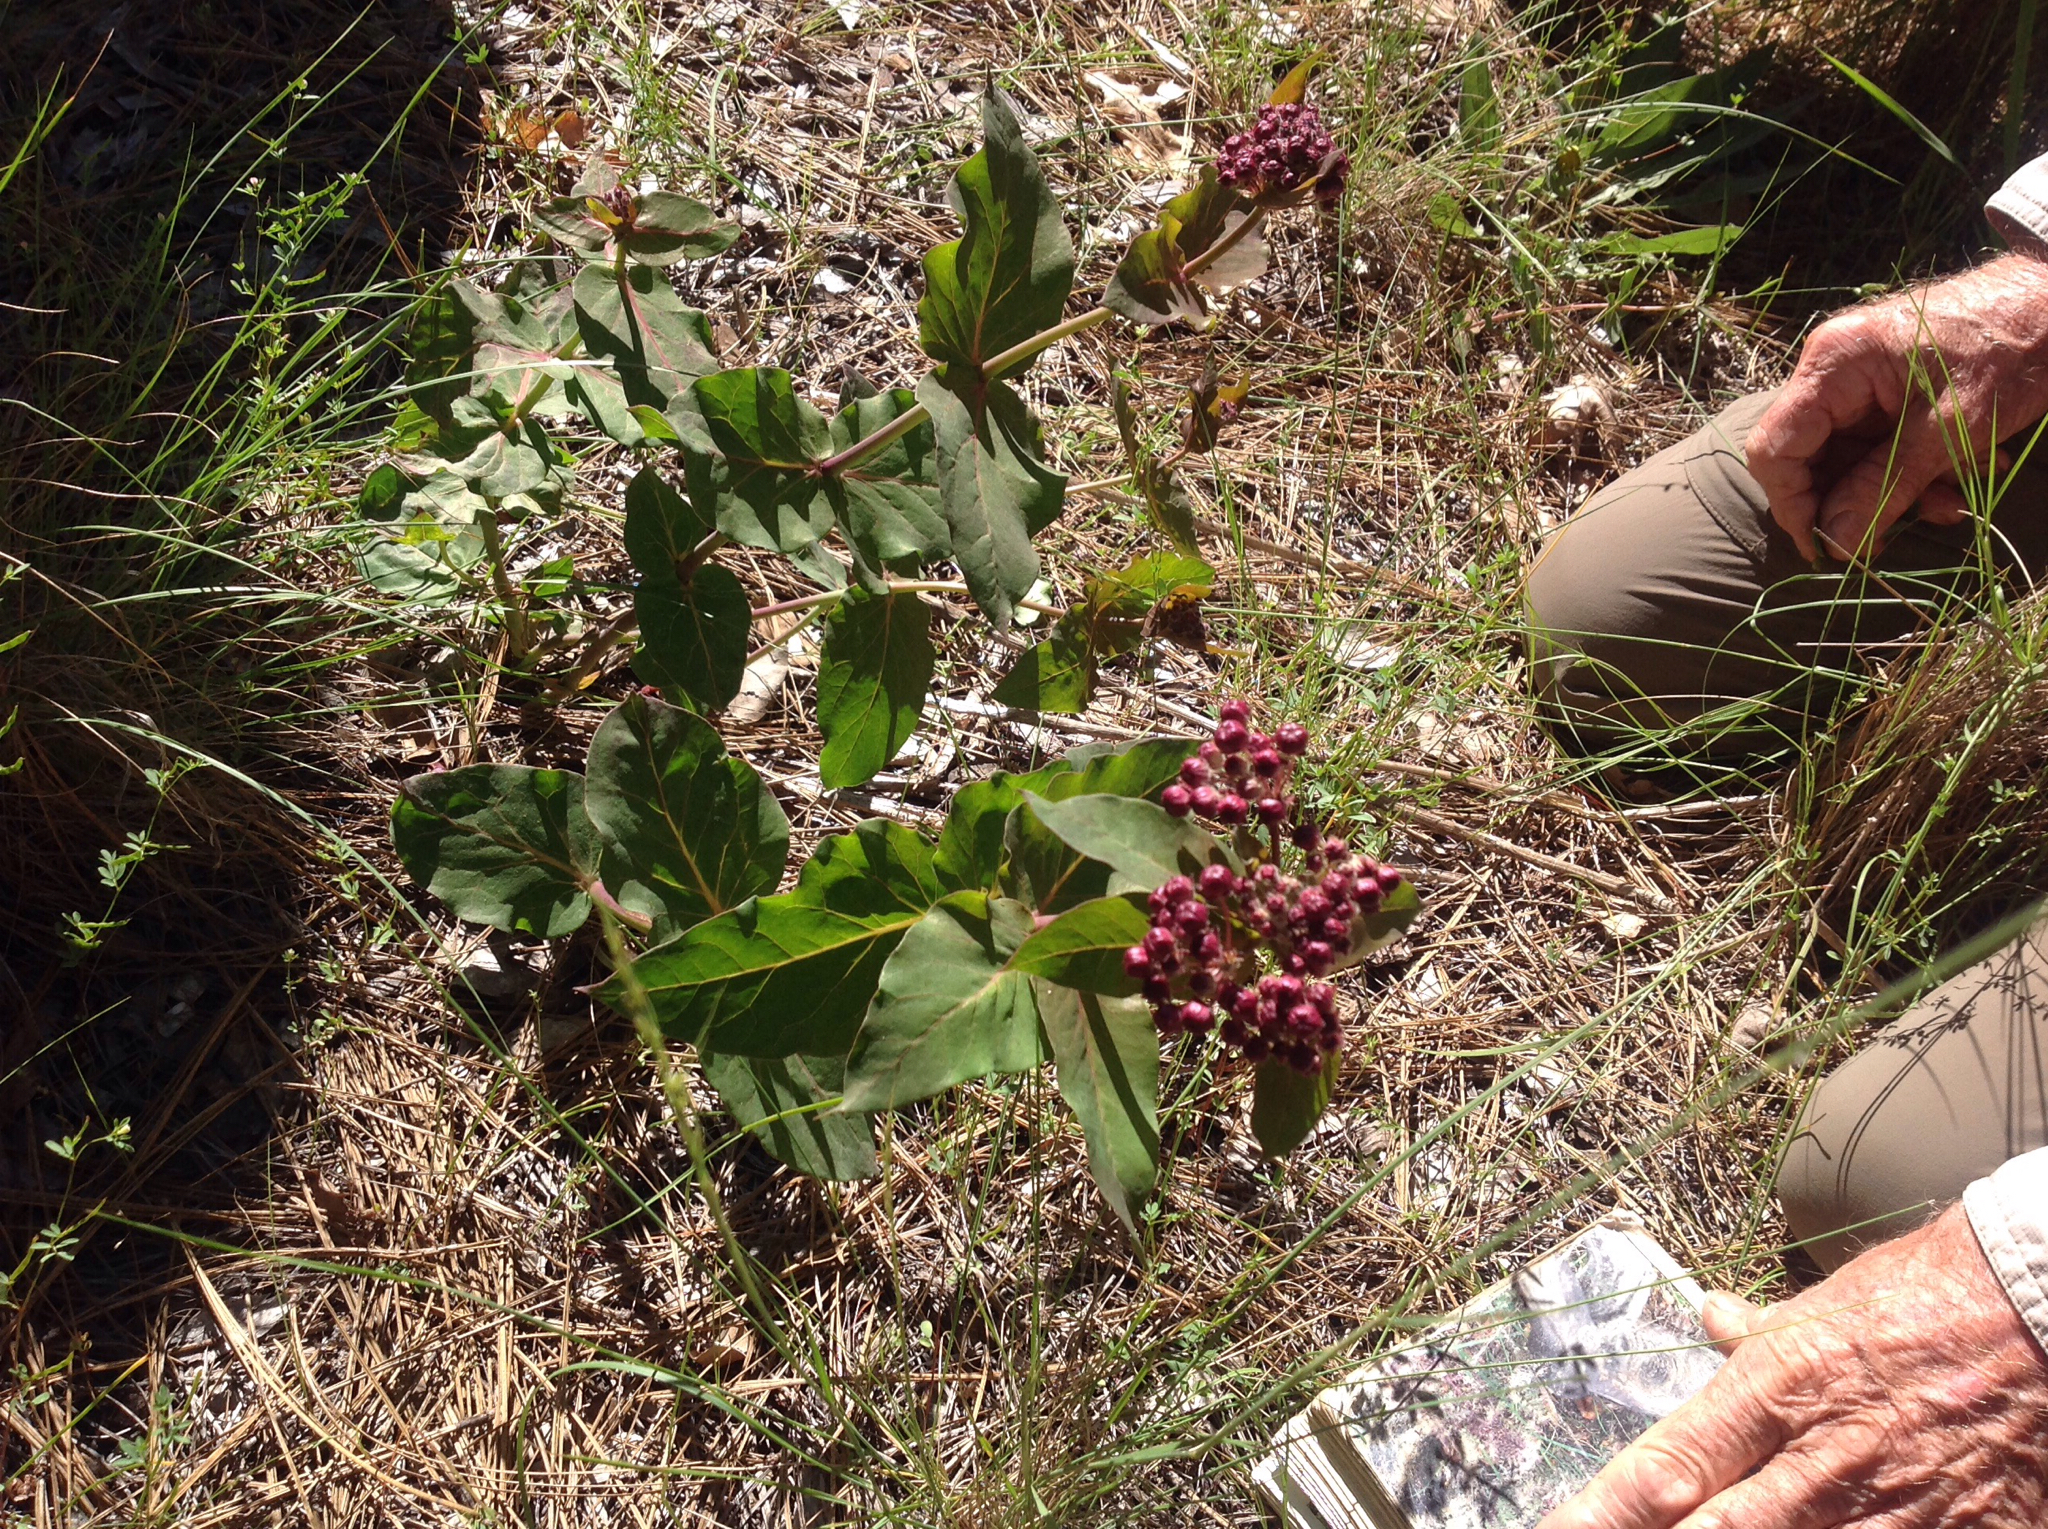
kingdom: Plantae
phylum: Tracheophyta
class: Magnoliopsida
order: Gentianales
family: Apocynaceae
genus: Asclepias
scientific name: Asclepias cordifolia
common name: Purple milkweed
